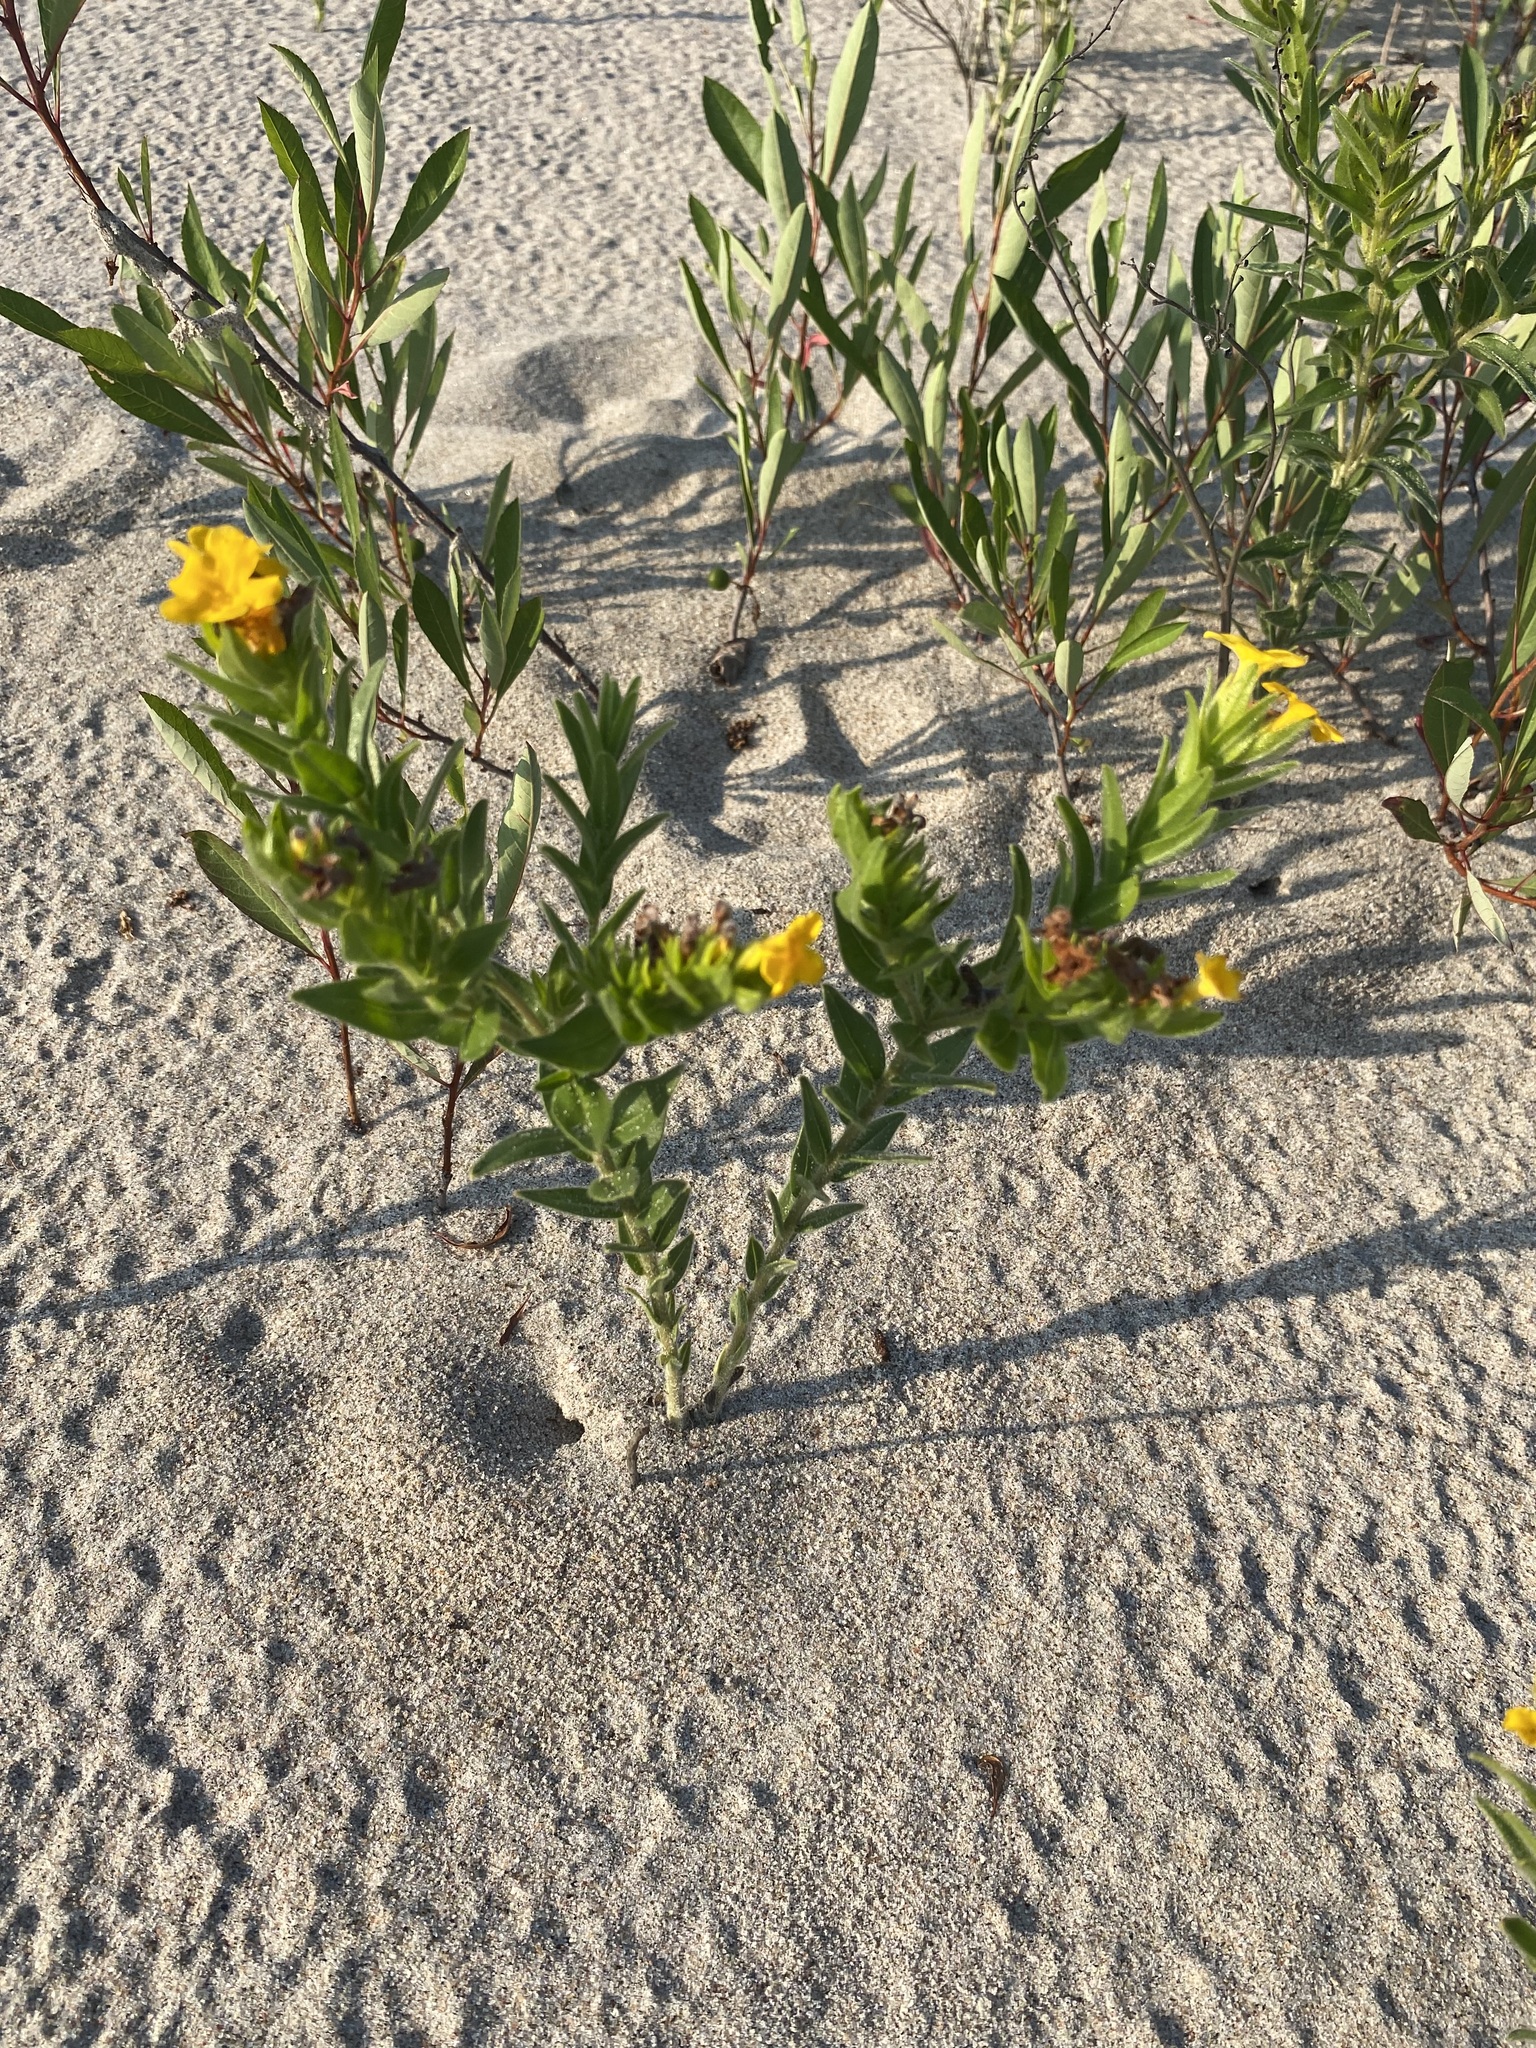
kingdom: Plantae
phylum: Tracheophyta
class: Magnoliopsida
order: Boraginales
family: Boraginaceae
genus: Lithospermum
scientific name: Lithospermum caroliniense
